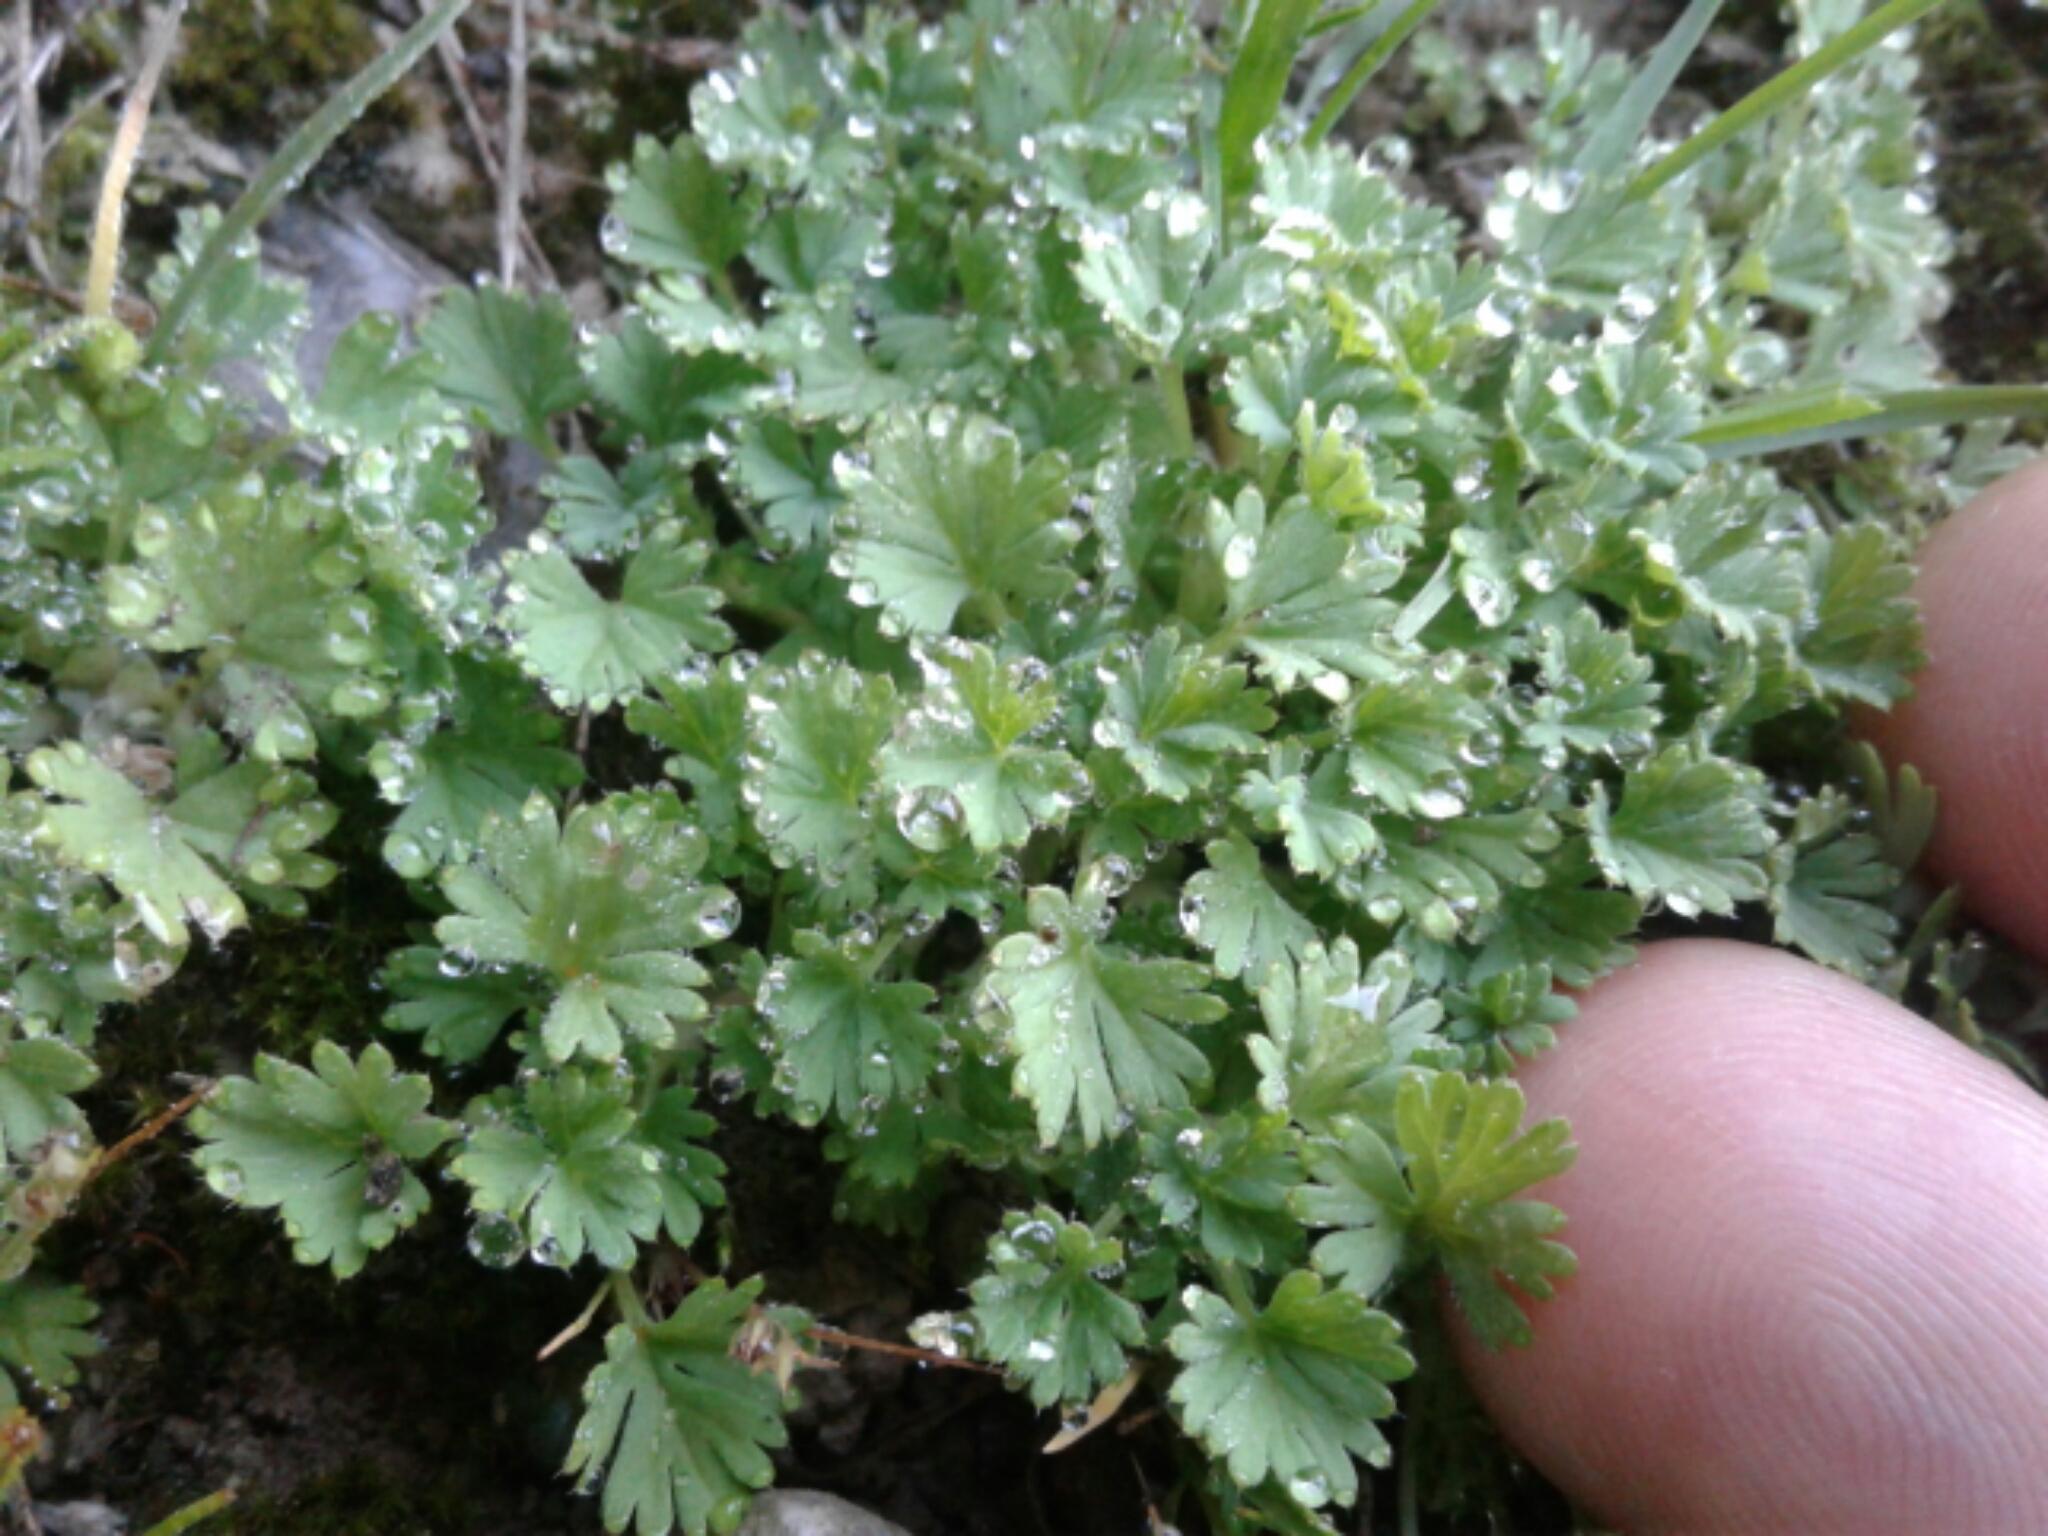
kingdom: Plantae
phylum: Tracheophyta
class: Magnoliopsida
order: Geraniales
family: Geraniaceae
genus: Geranium
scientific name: Geranium
